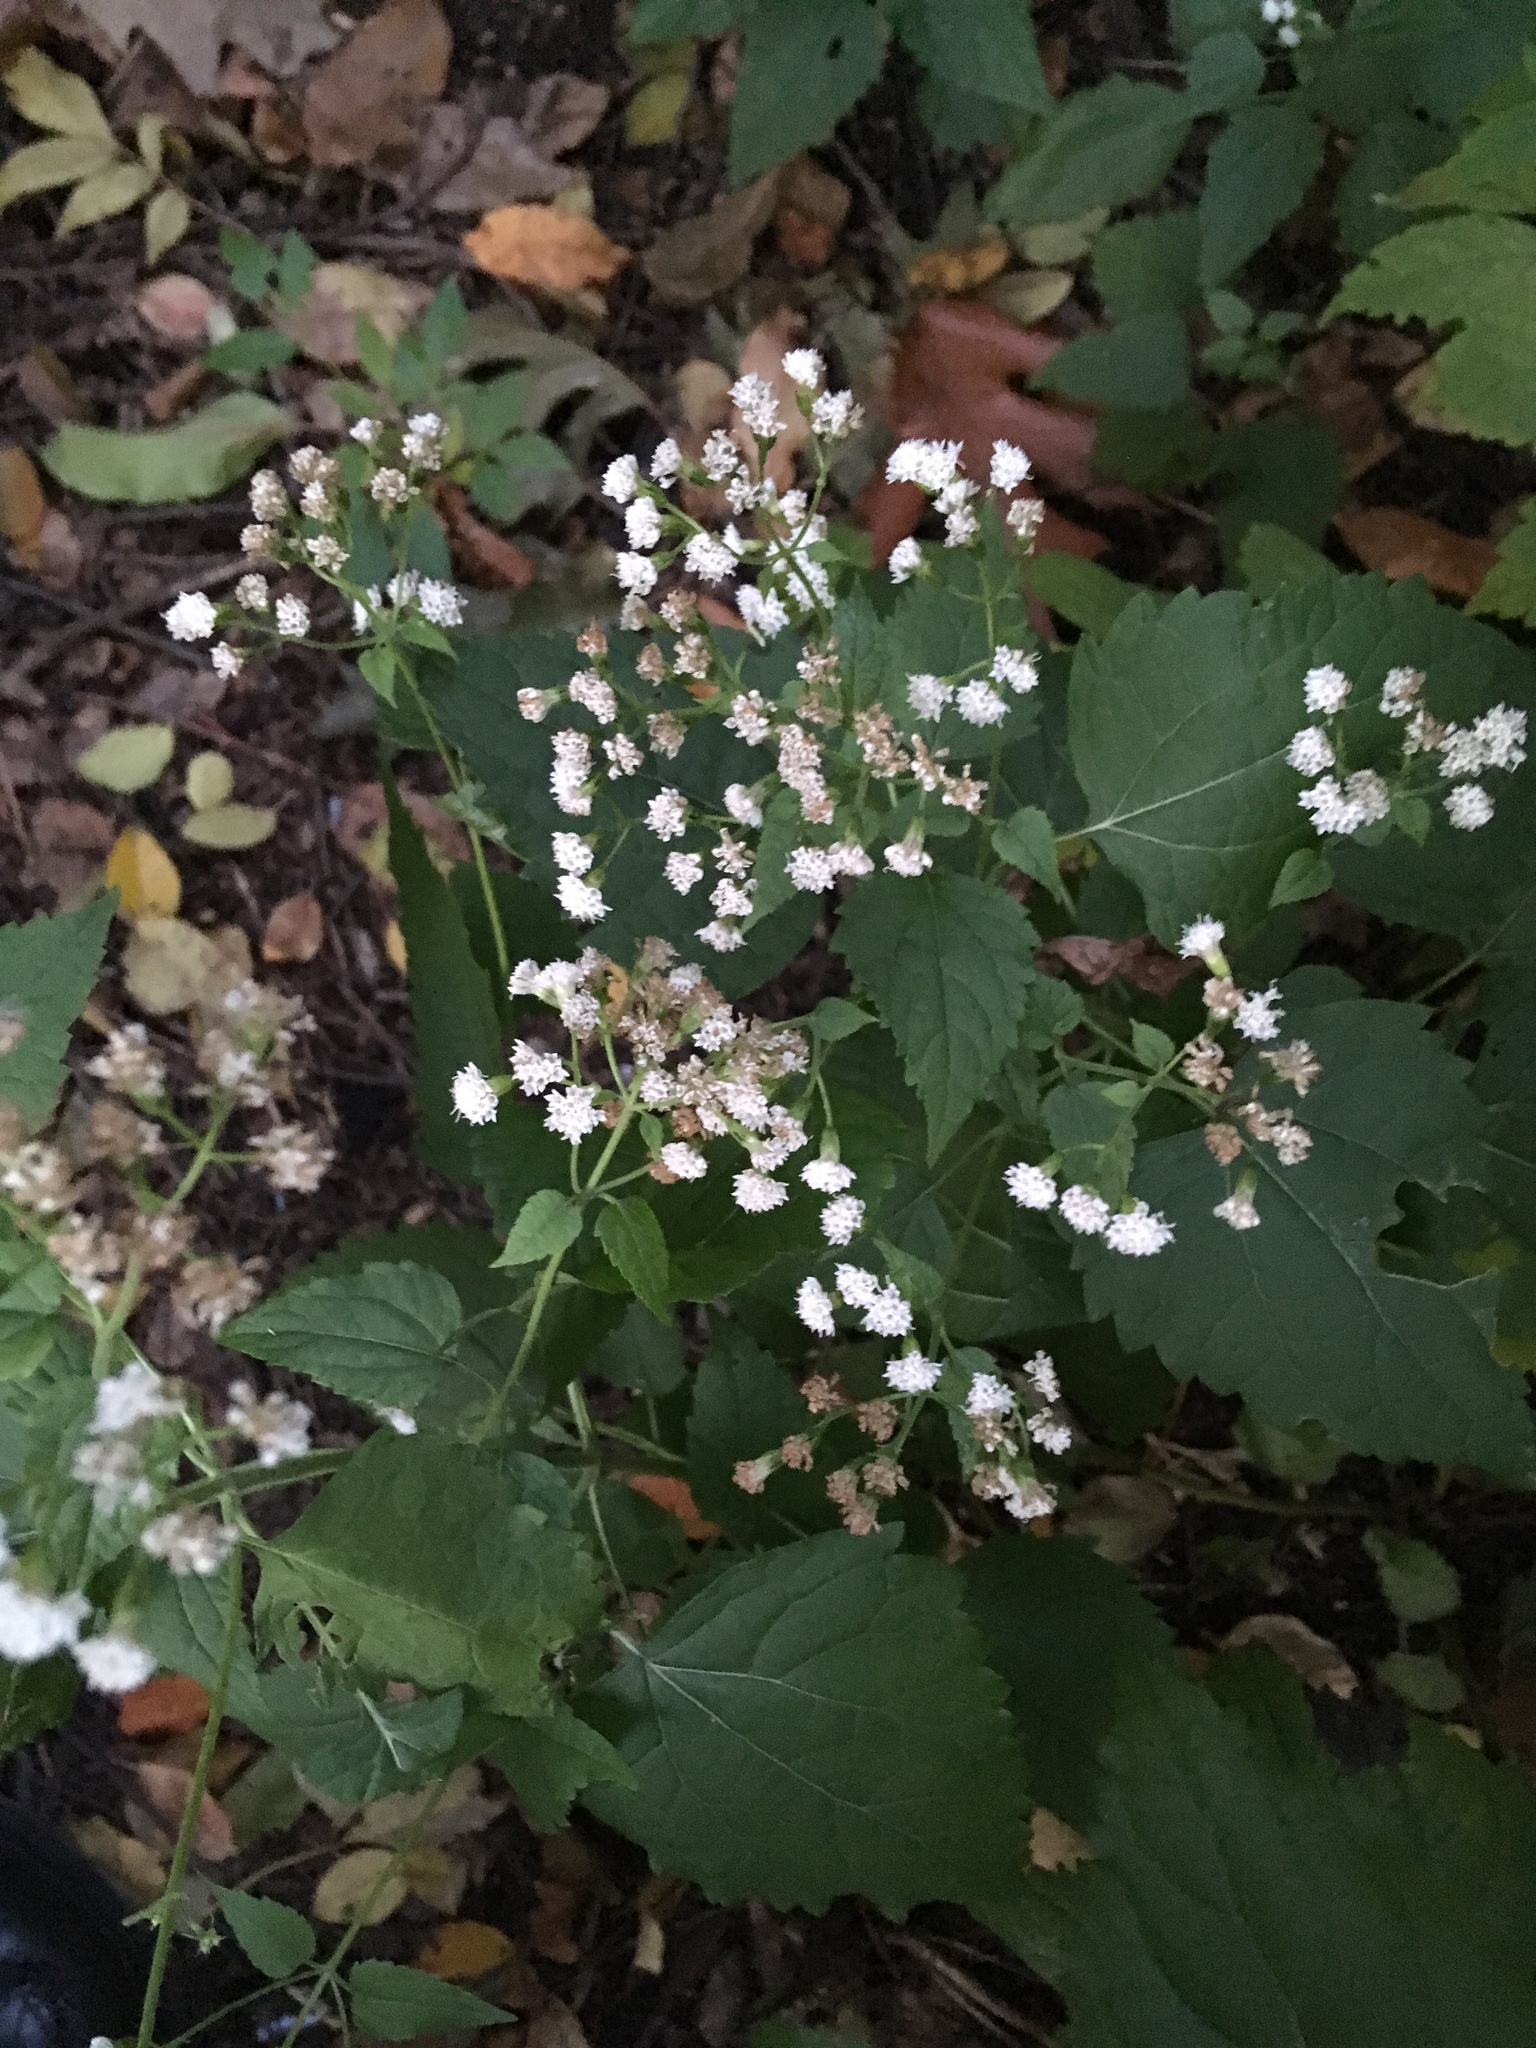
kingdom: Plantae
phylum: Tracheophyta
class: Magnoliopsida
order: Asterales
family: Asteraceae
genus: Ageratina
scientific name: Ageratina altissima
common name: White snakeroot
